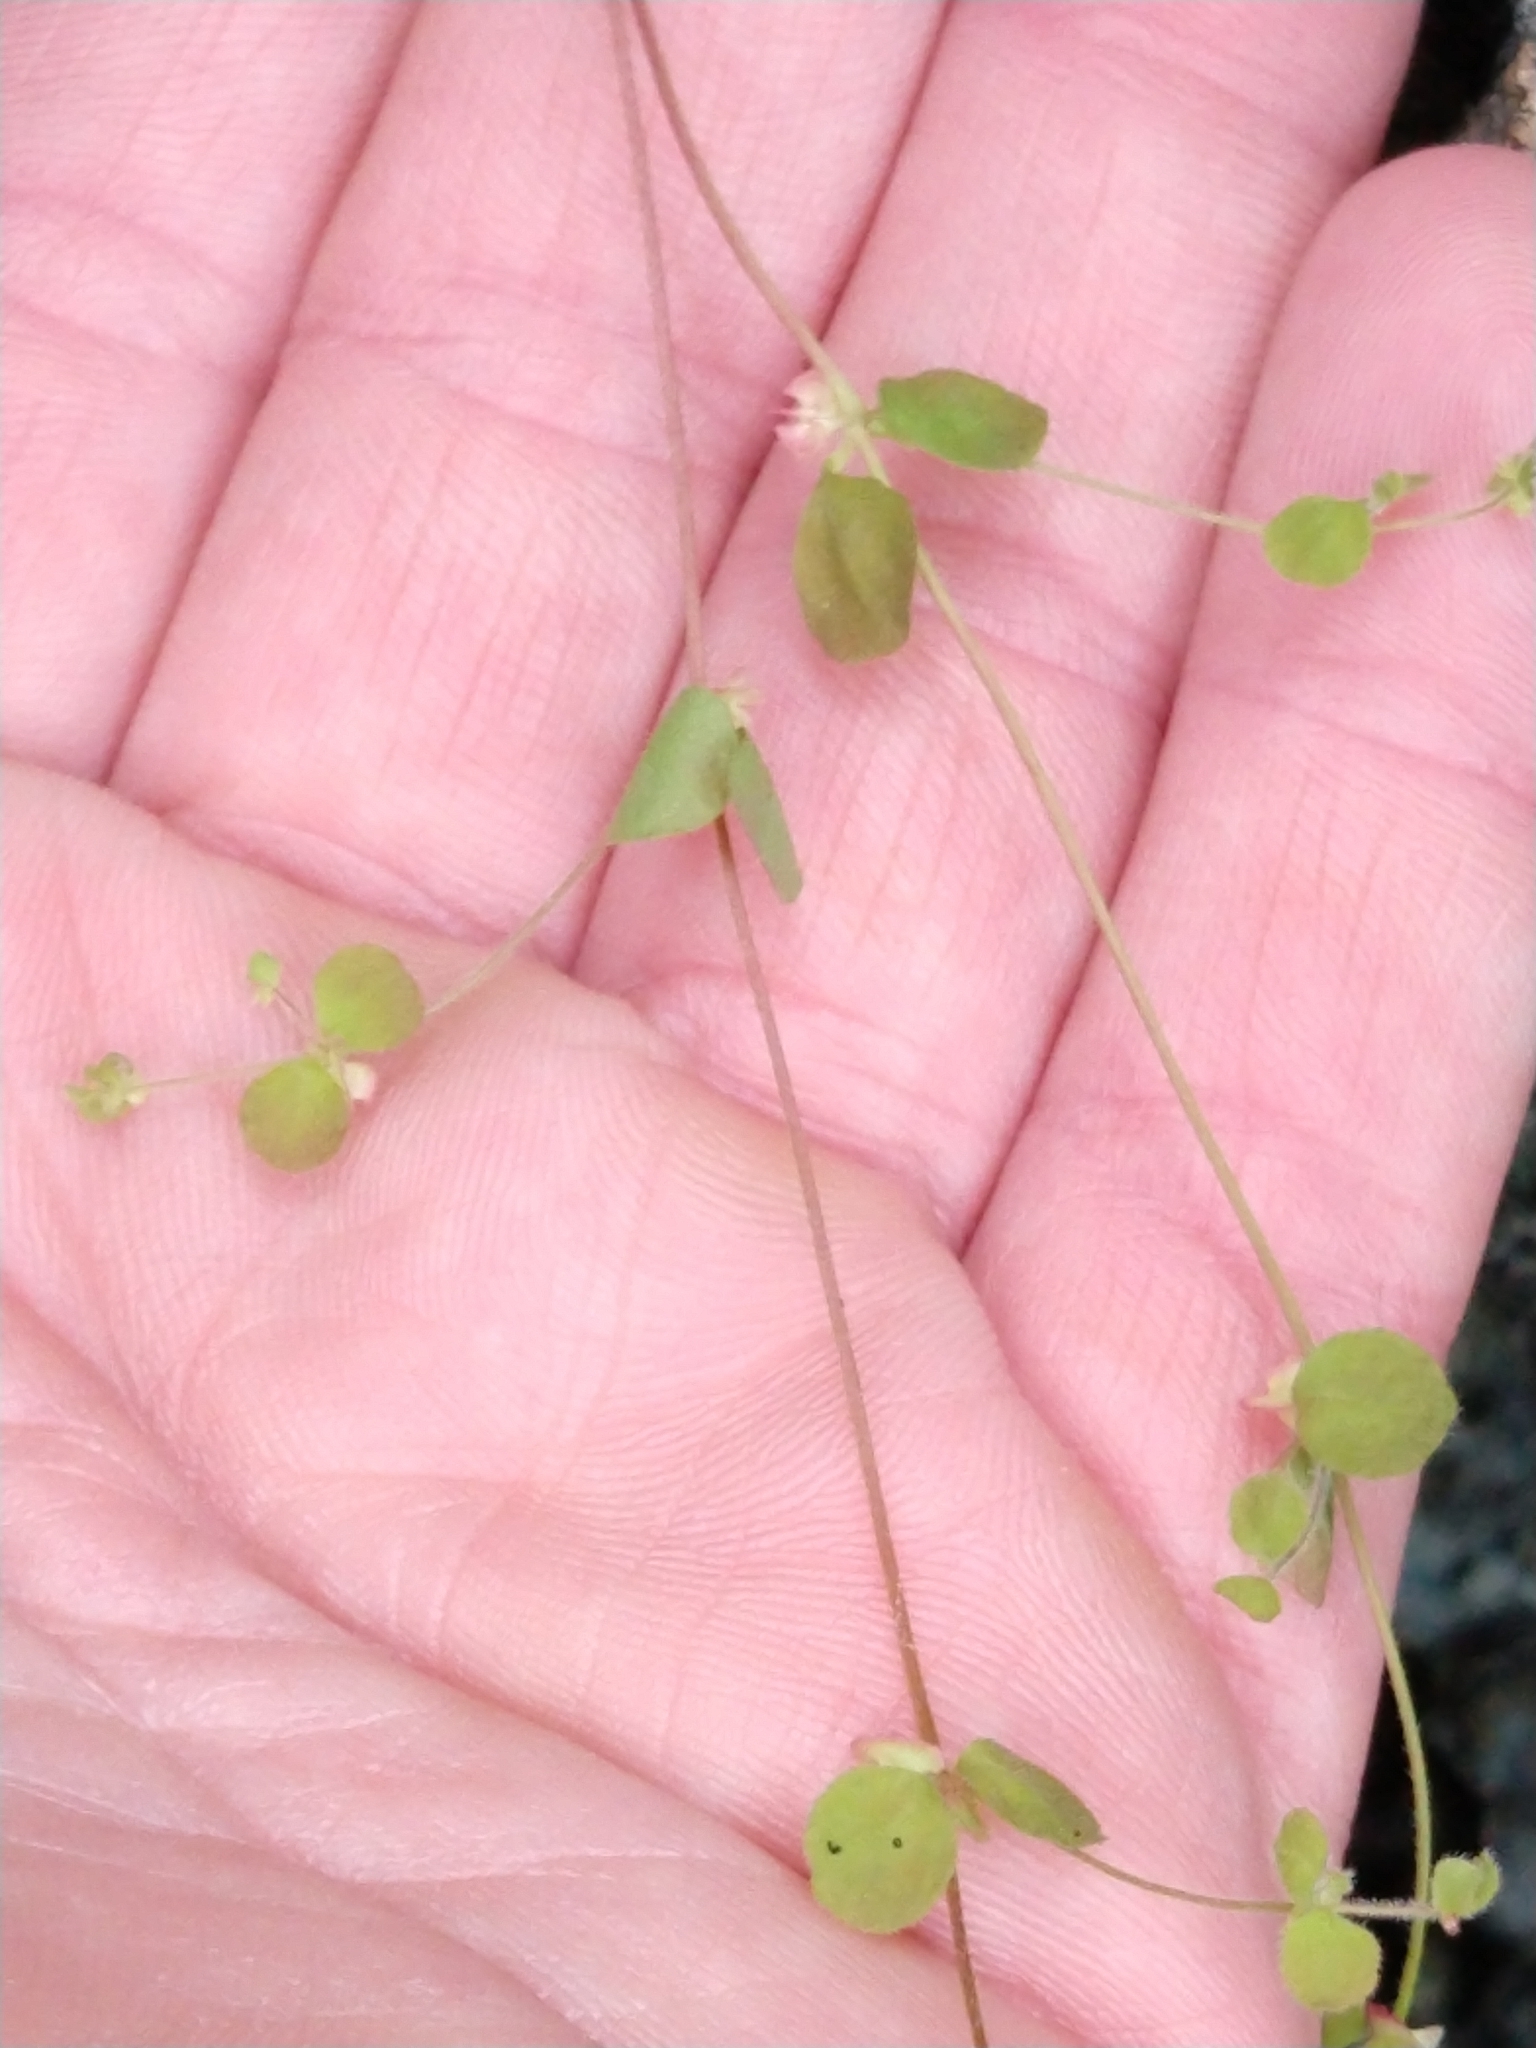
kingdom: Plantae
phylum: Tracheophyta
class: Magnoliopsida
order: Caryophyllales
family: Polygonaceae
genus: Pterostegia
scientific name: Pterostegia drymarioides
